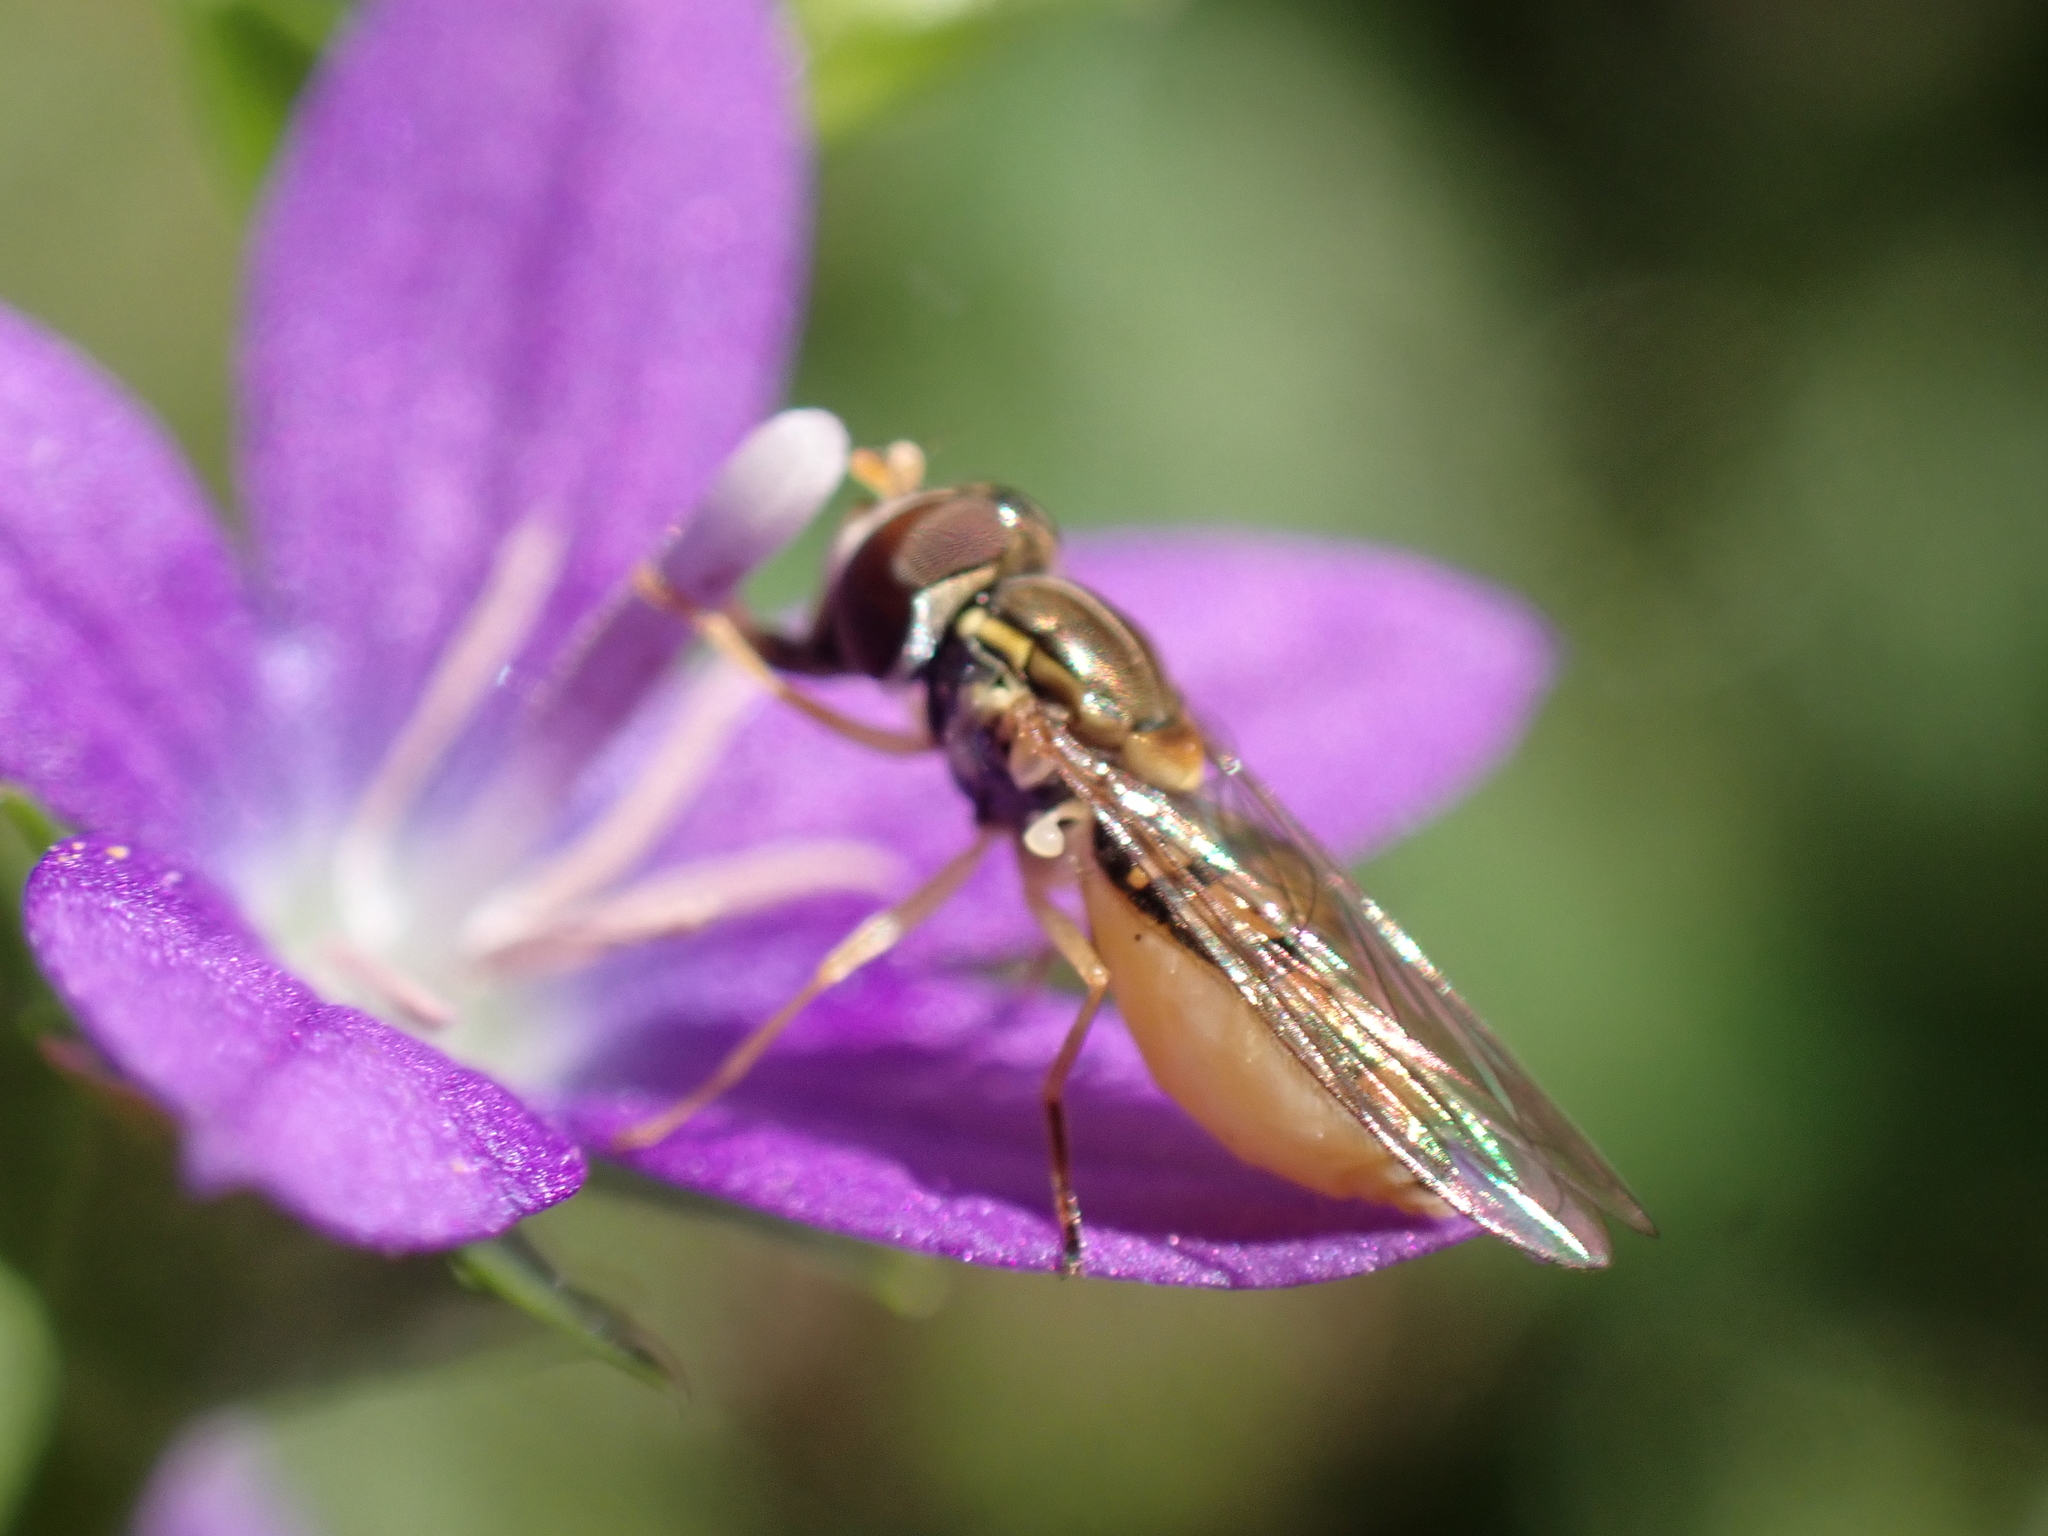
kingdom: Animalia
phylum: Arthropoda
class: Insecta
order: Diptera
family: Syrphidae
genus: Toxomerus
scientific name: Toxomerus marginatus
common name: Syrphid fly
